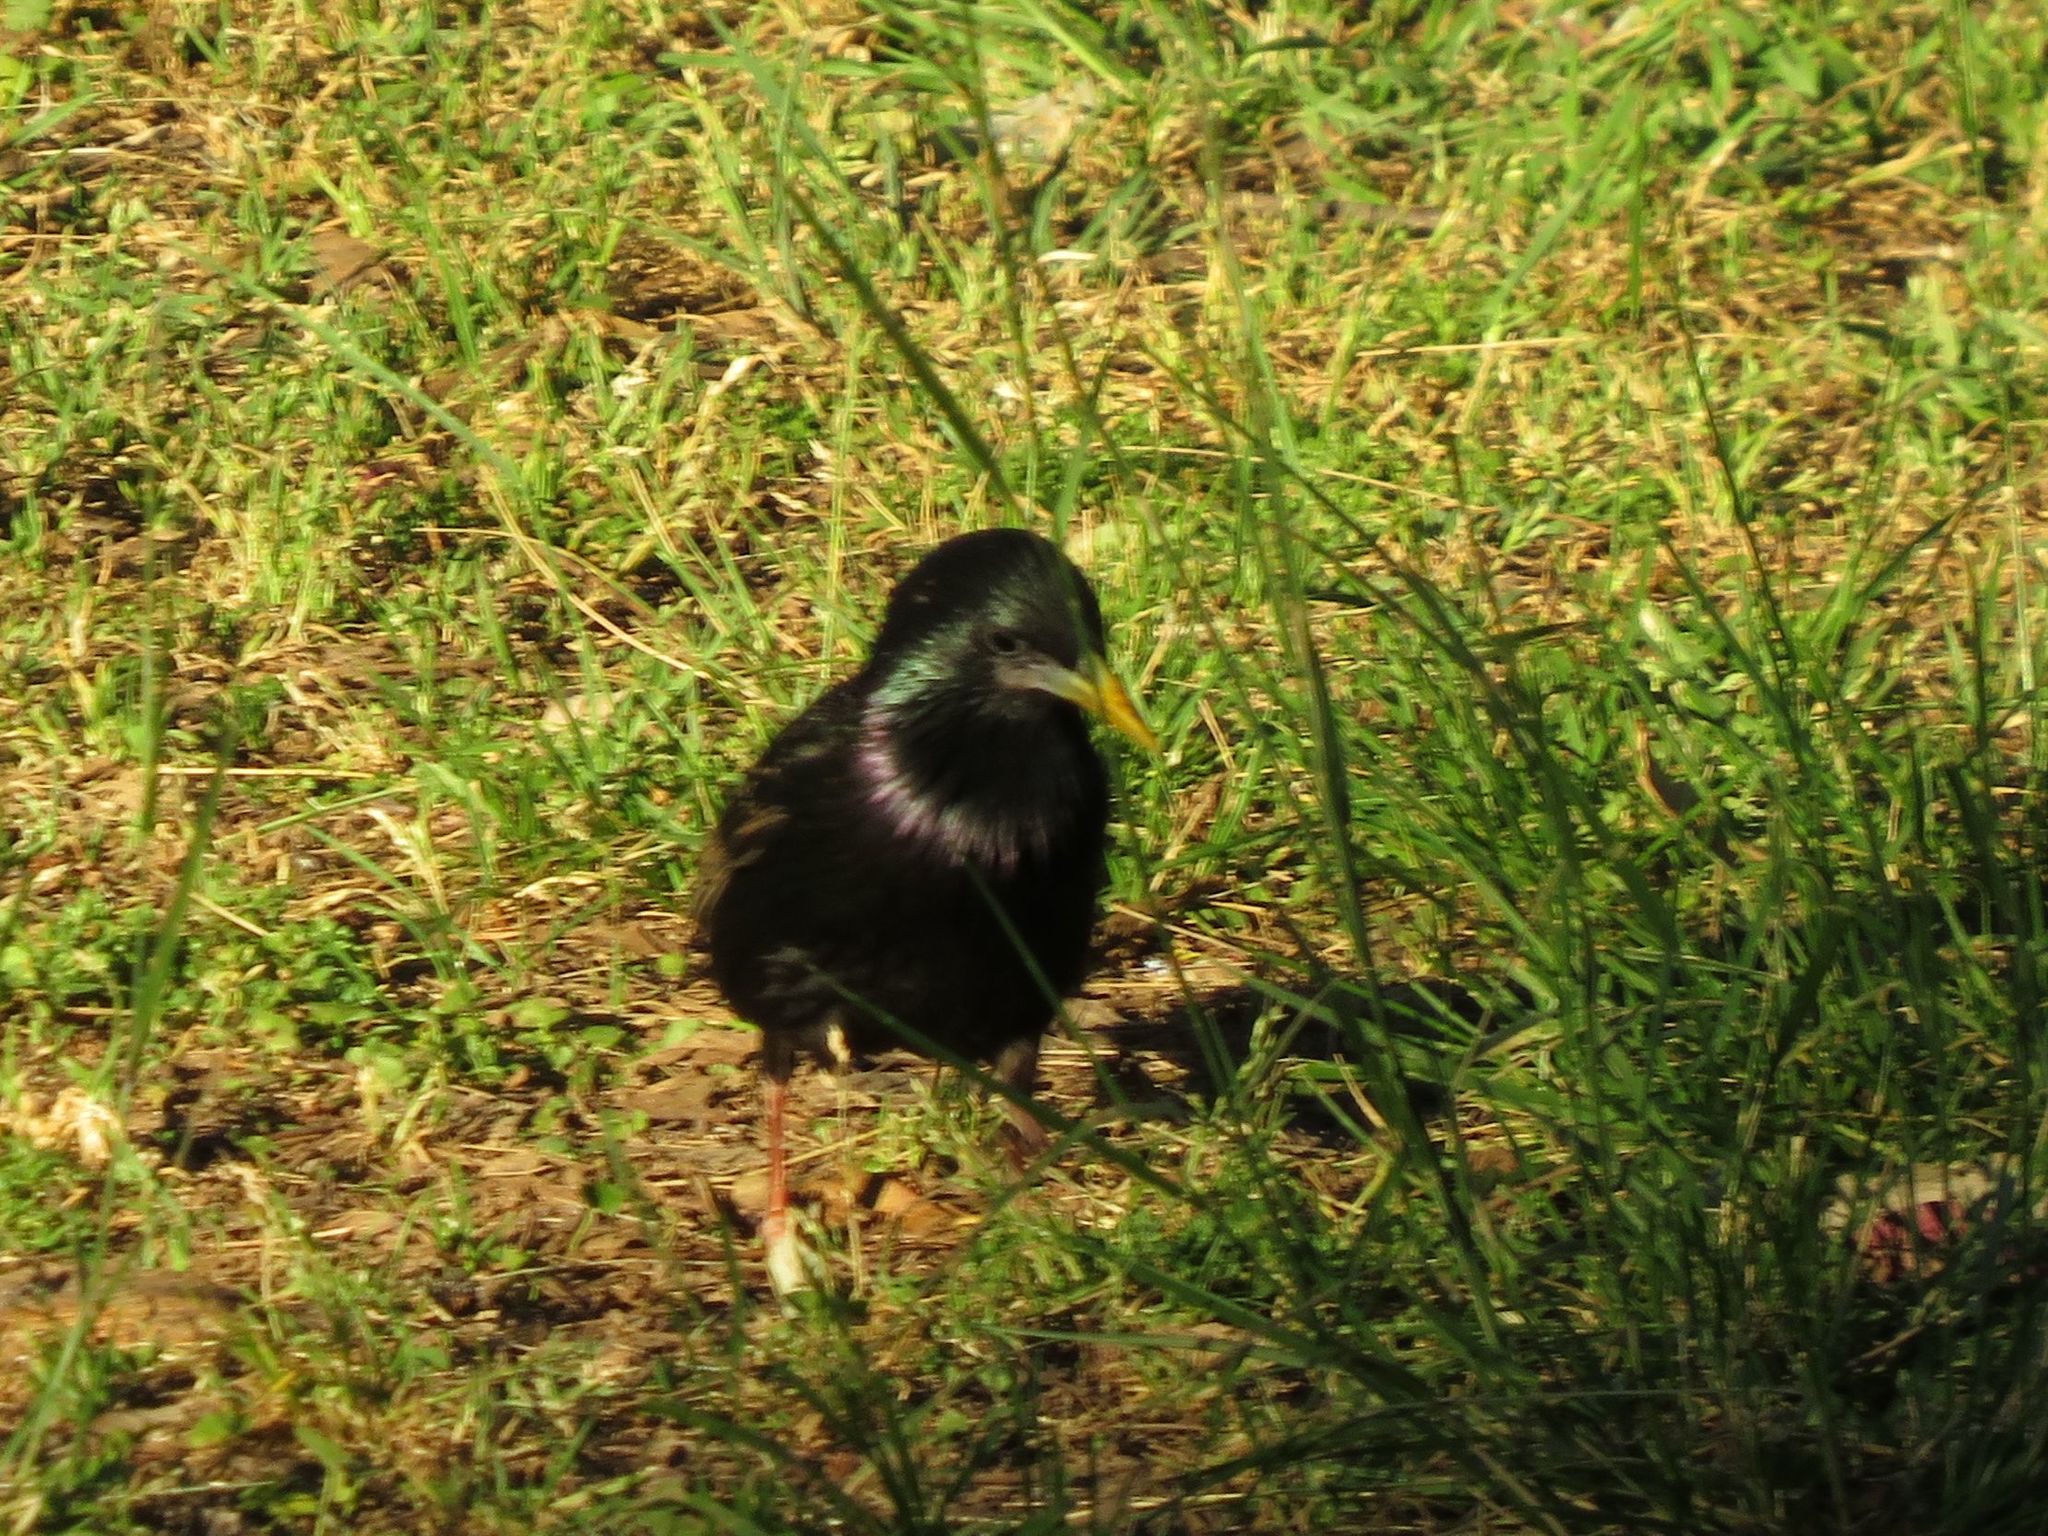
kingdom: Animalia
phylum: Chordata
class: Aves
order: Passeriformes
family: Sturnidae
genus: Sturnus
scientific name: Sturnus vulgaris
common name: Common starling
